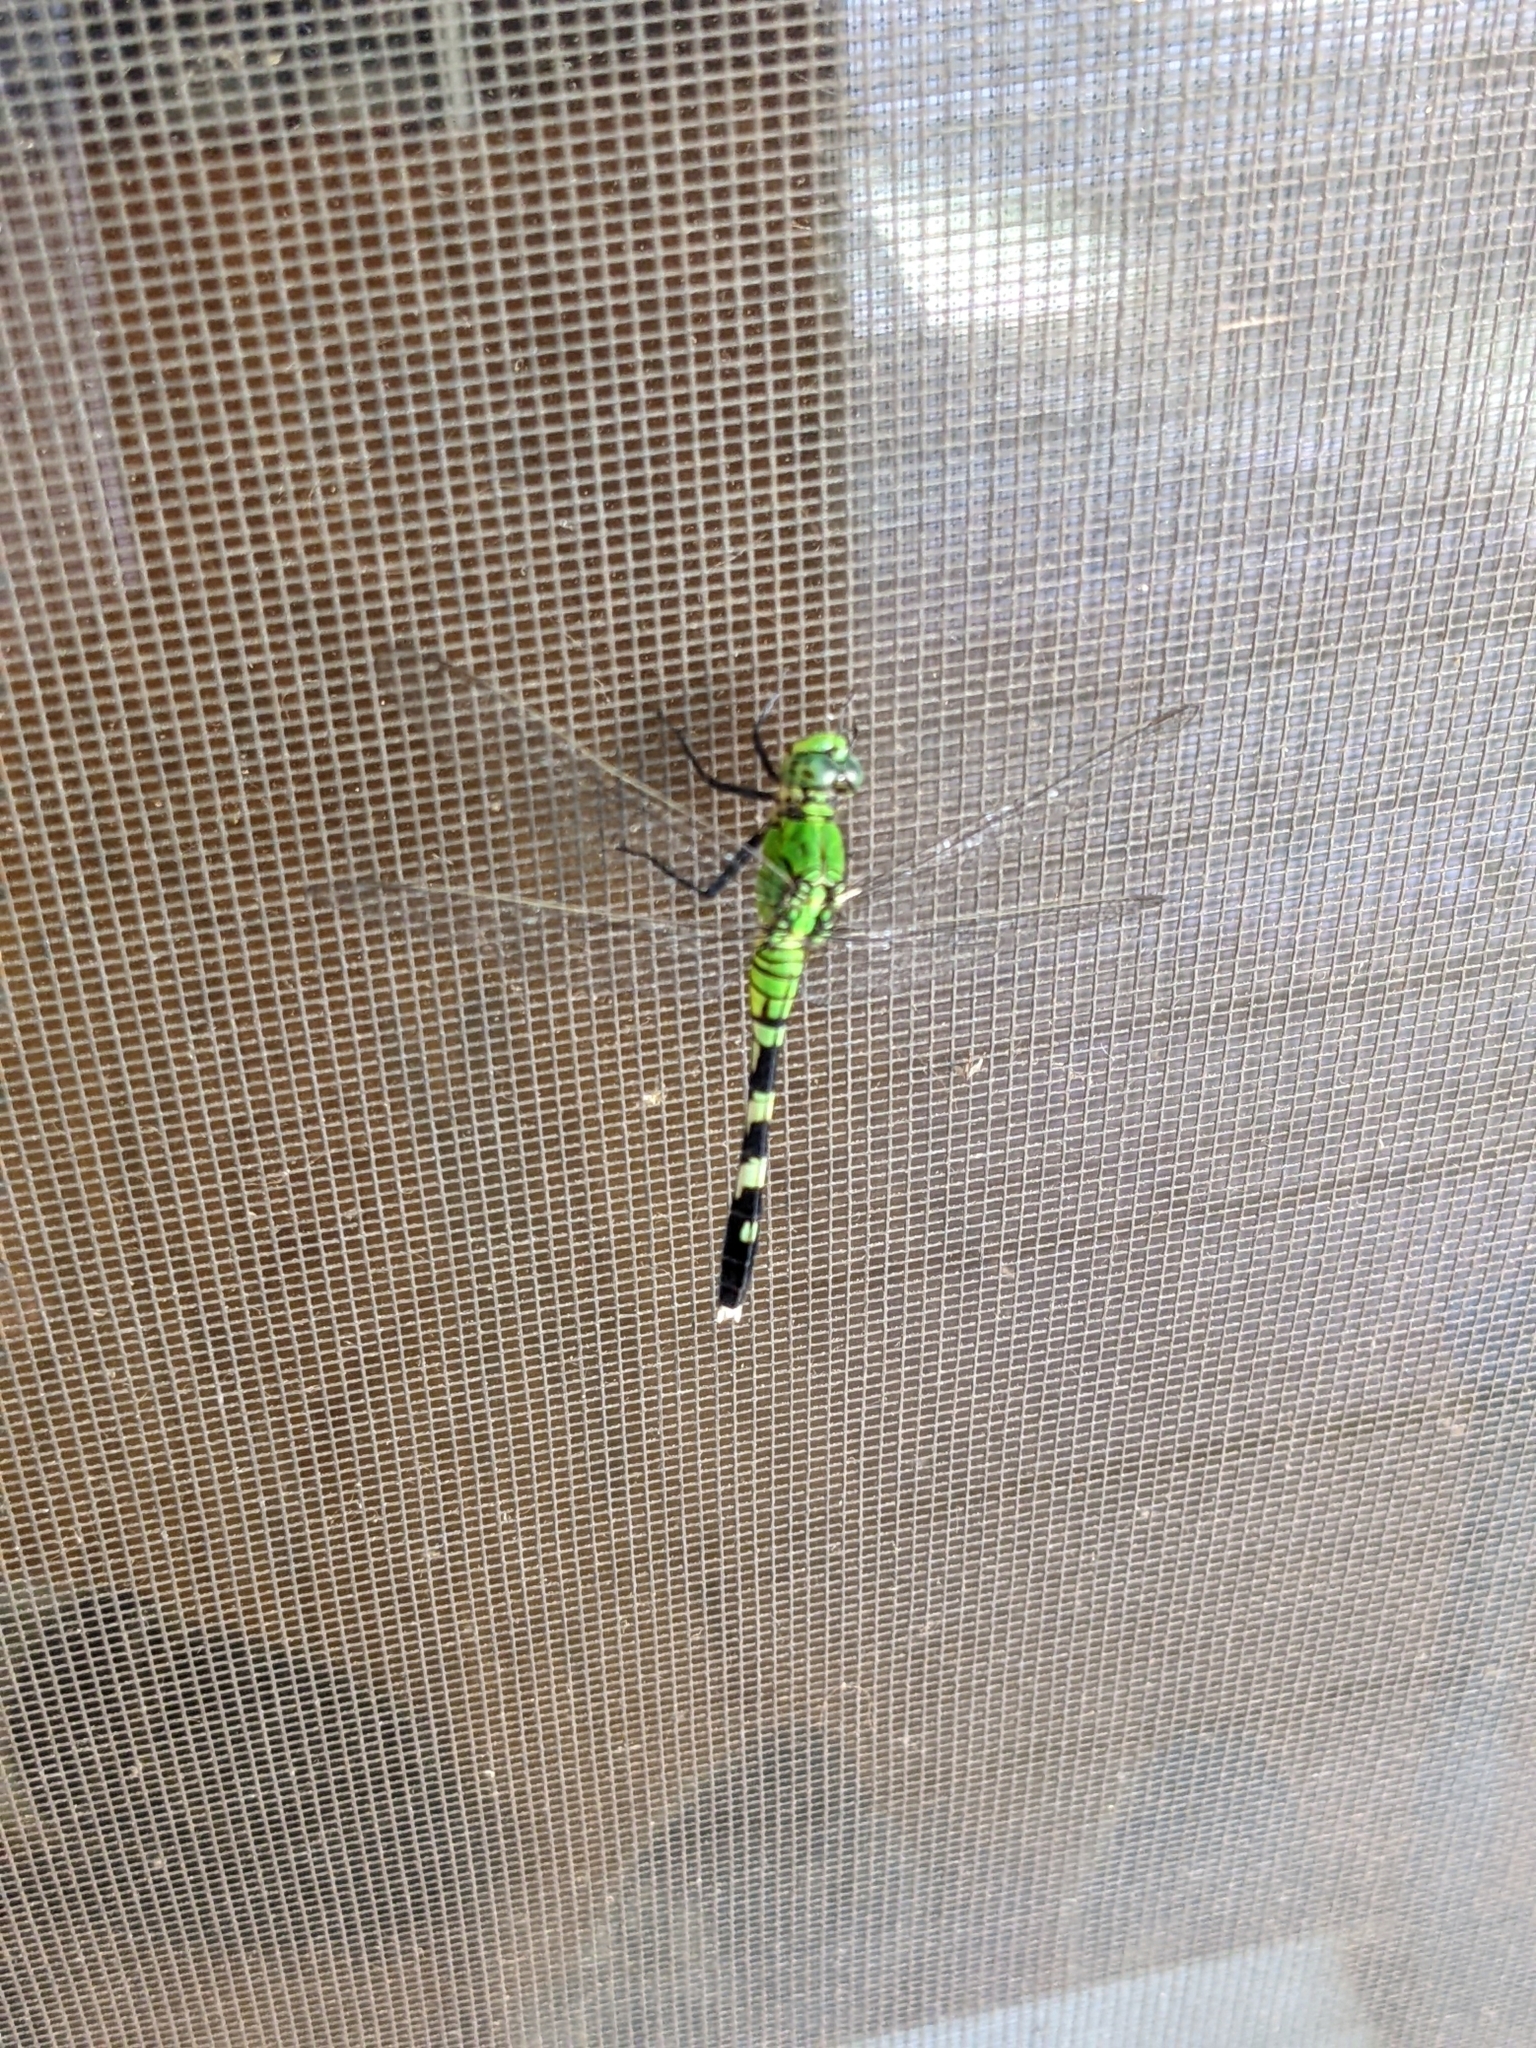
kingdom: Animalia
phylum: Arthropoda
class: Insecta
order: Odonata
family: Libellulidae
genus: Erythemis
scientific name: Erythemis simplicicollis
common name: Eastern pondhawk
